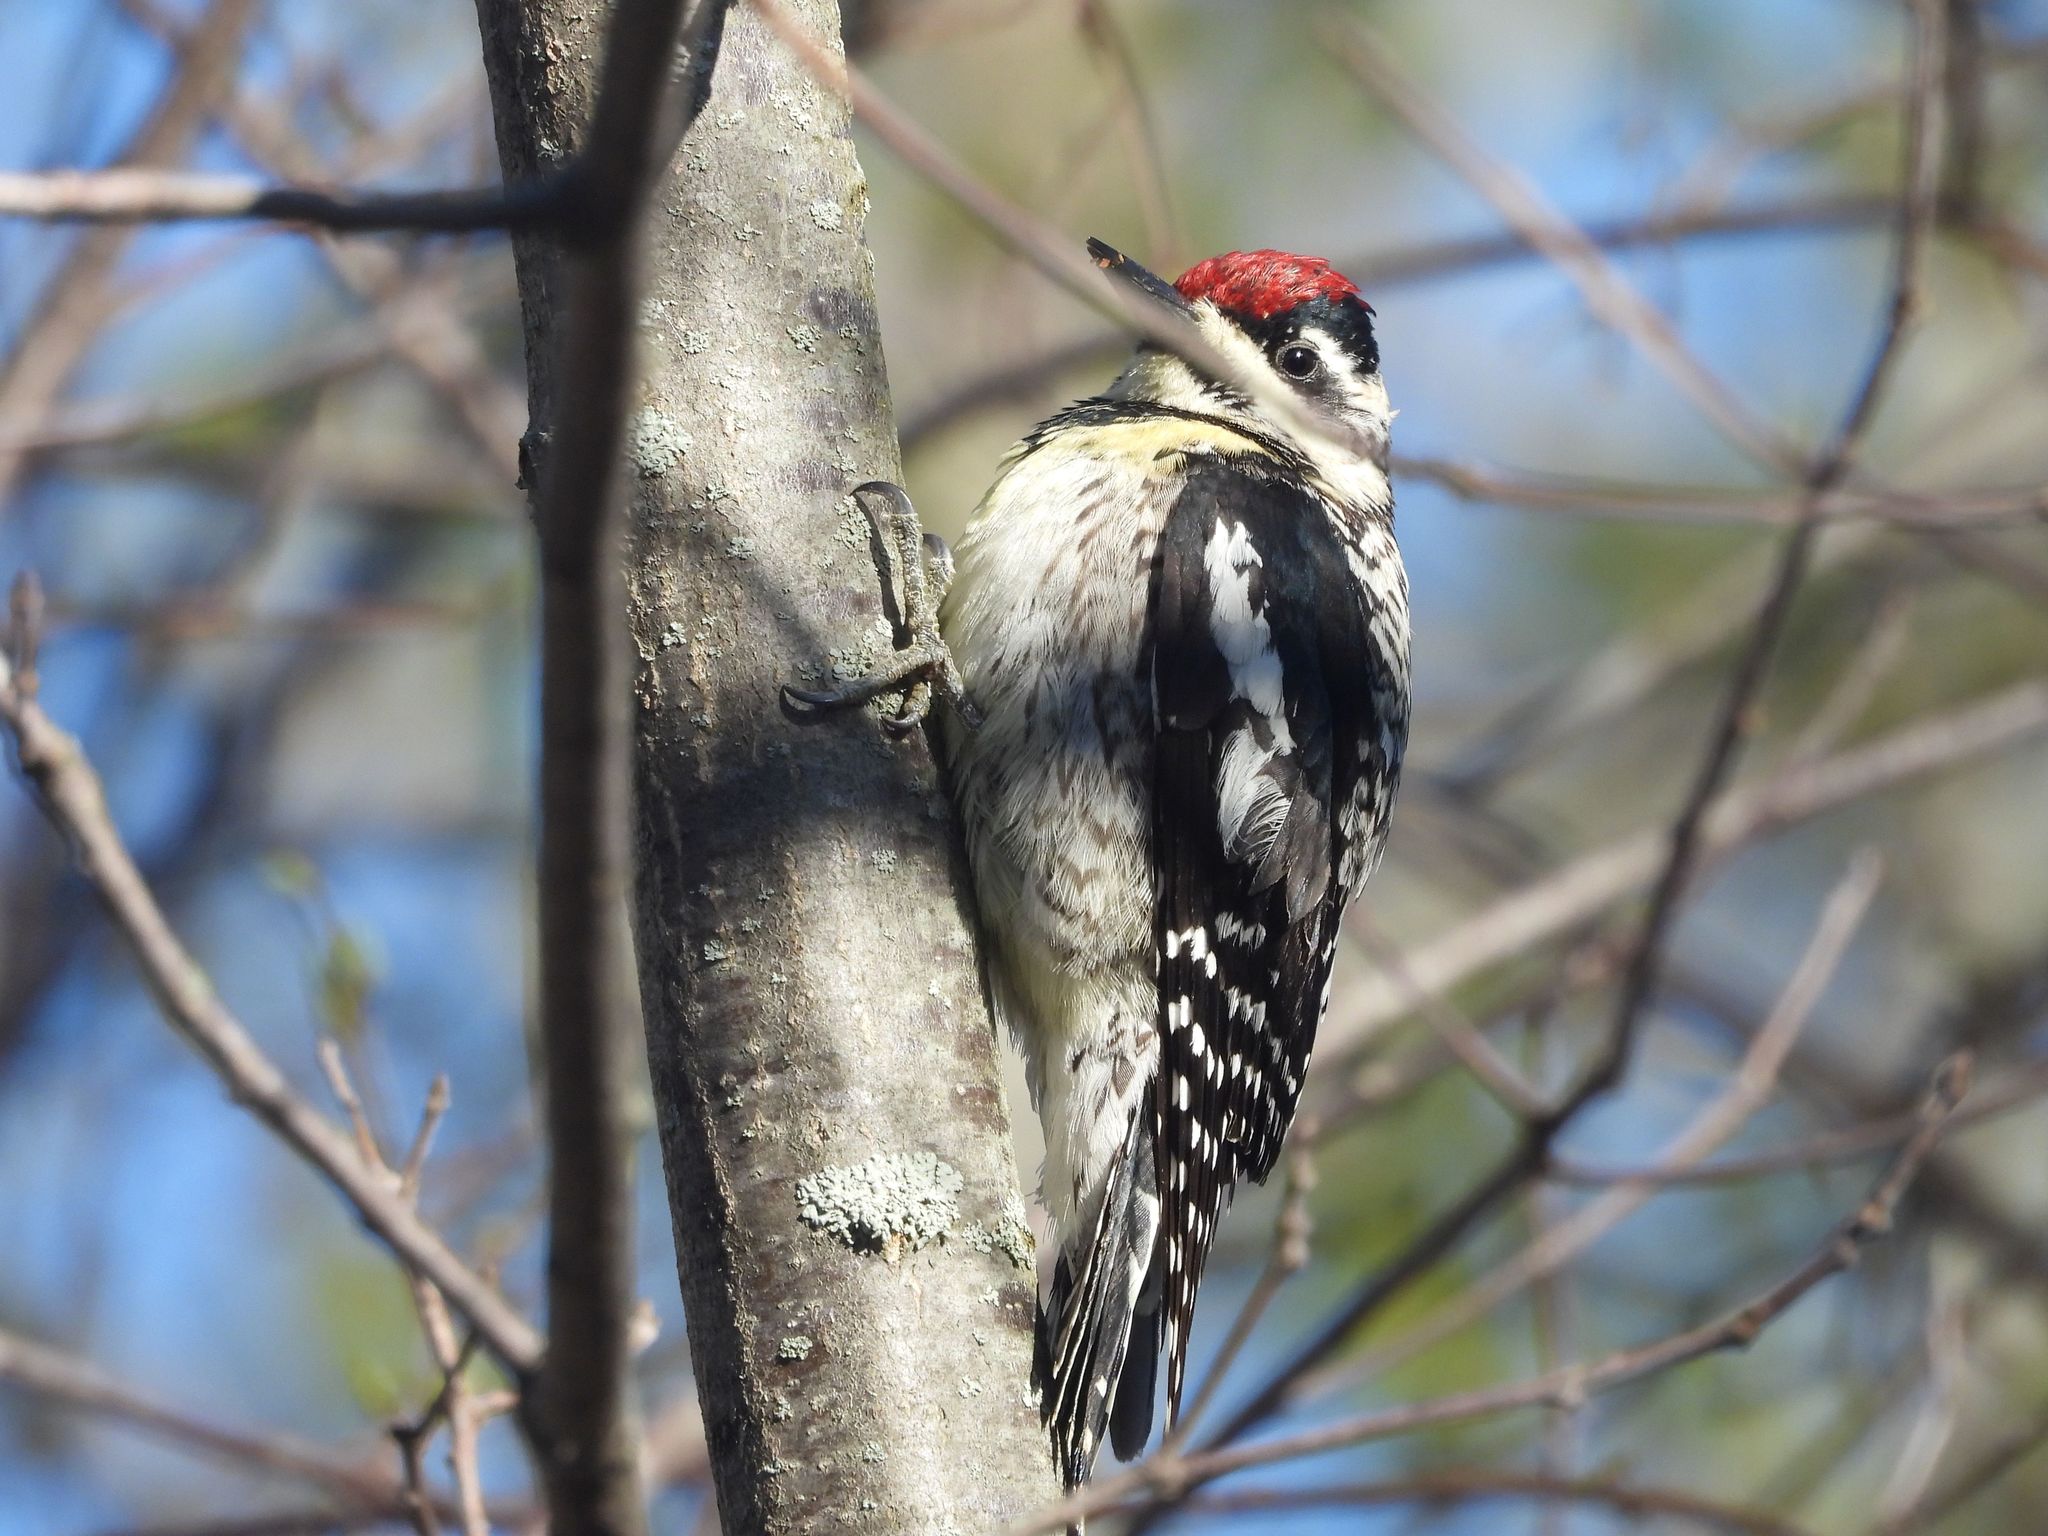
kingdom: Animalia
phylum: Chordata
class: Aves
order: Piciformes
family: Picidae
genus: Sphyrapicus
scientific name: Sphyrapicus varius
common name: Yellow-bellied sapsucker
